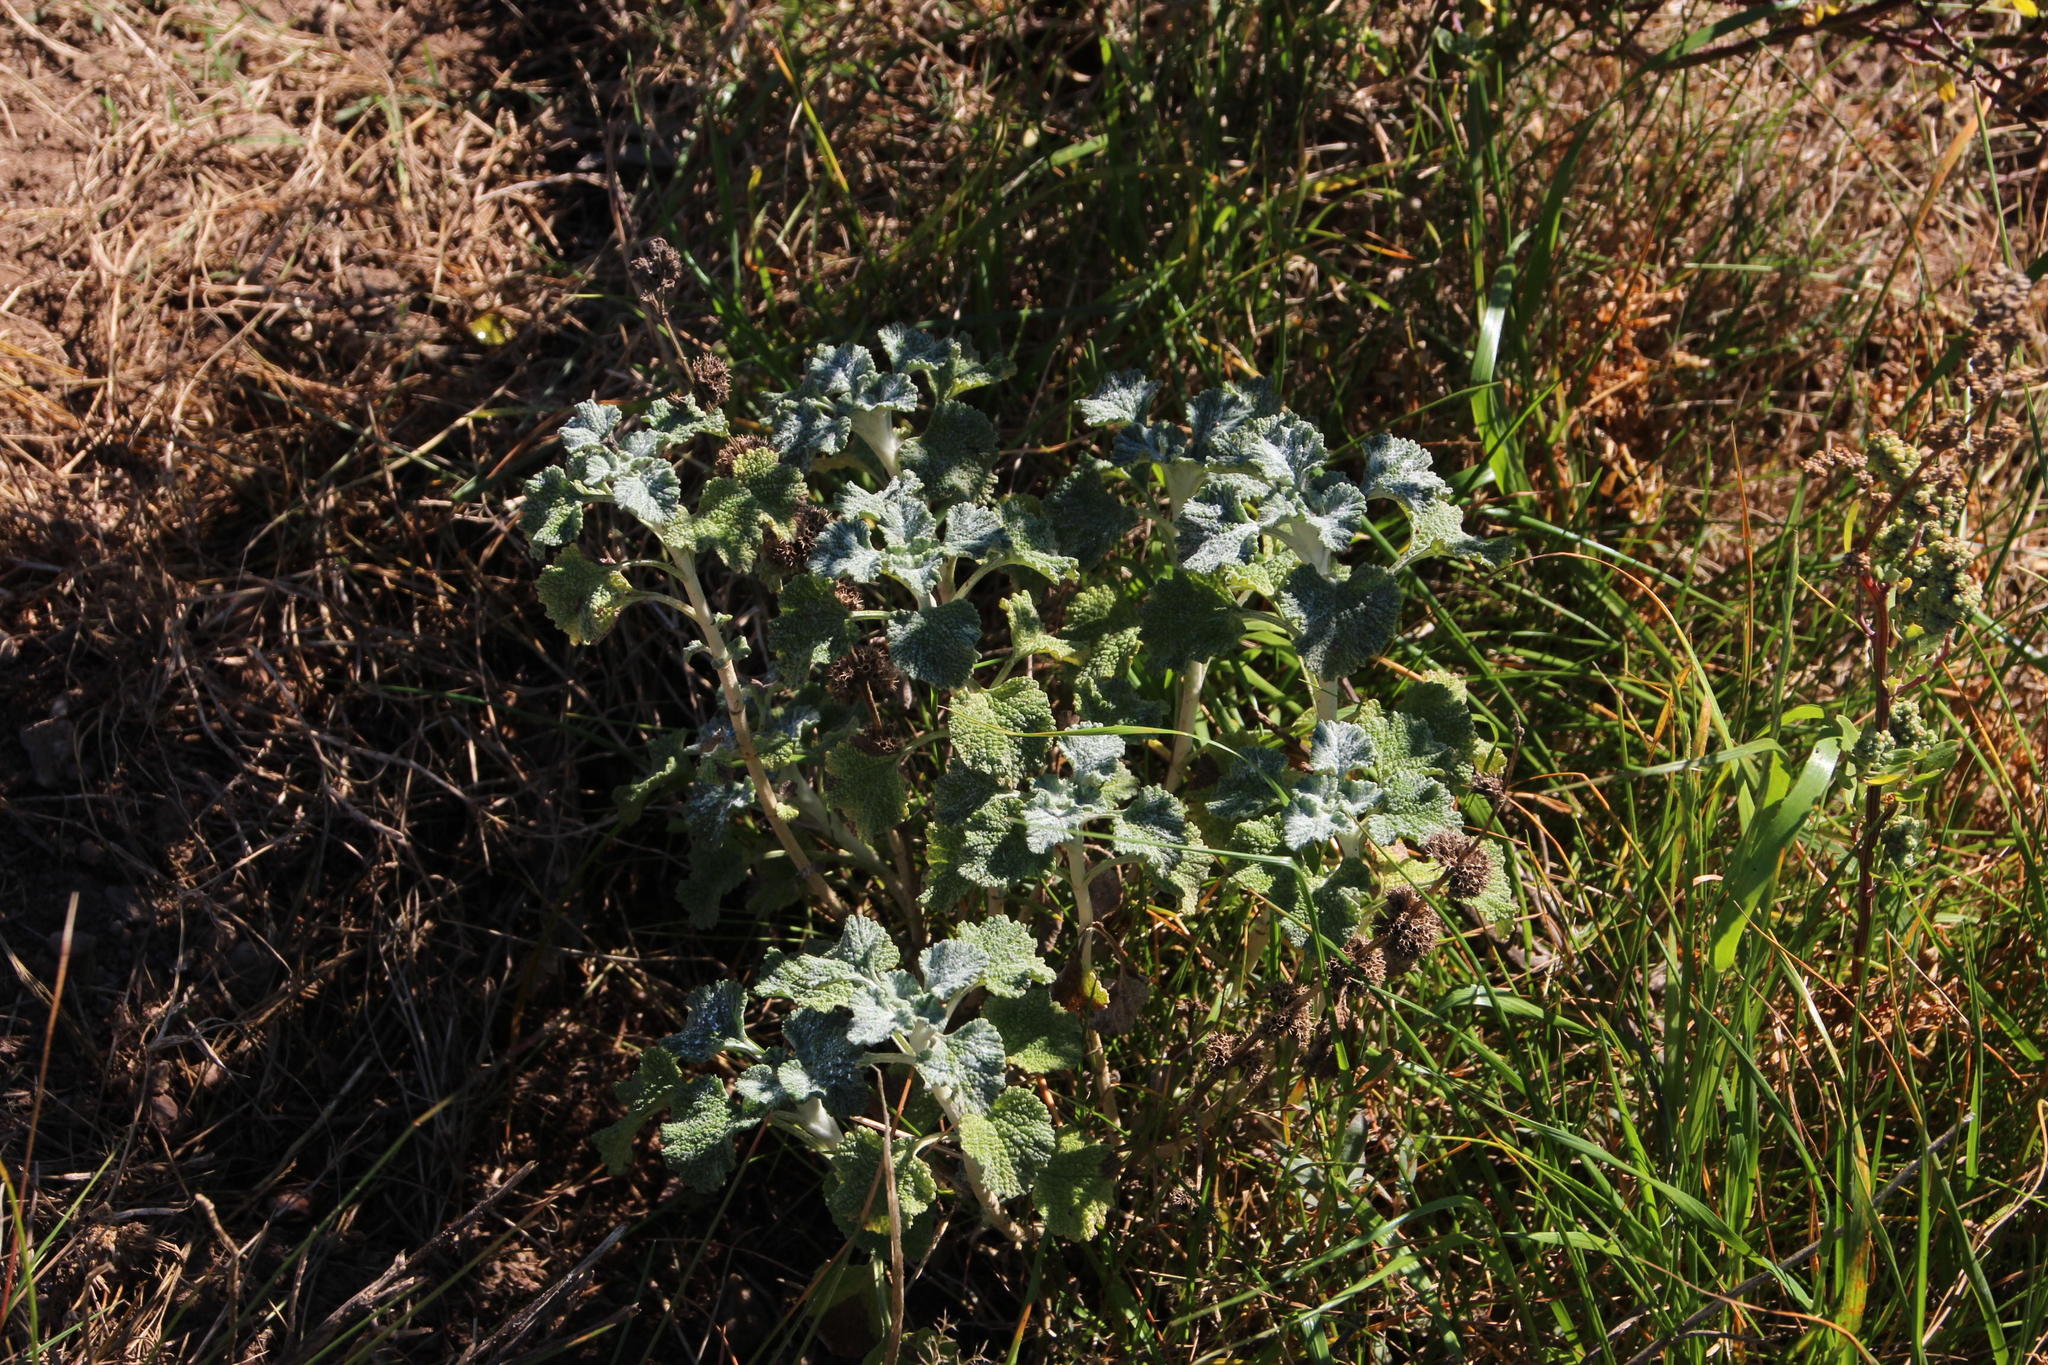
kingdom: Plantae
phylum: Tracheophyta
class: Magnoliopsida
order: Lamiales
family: Lamiaceae
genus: Marrubium
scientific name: Marrubium vulgare
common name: Horehound
